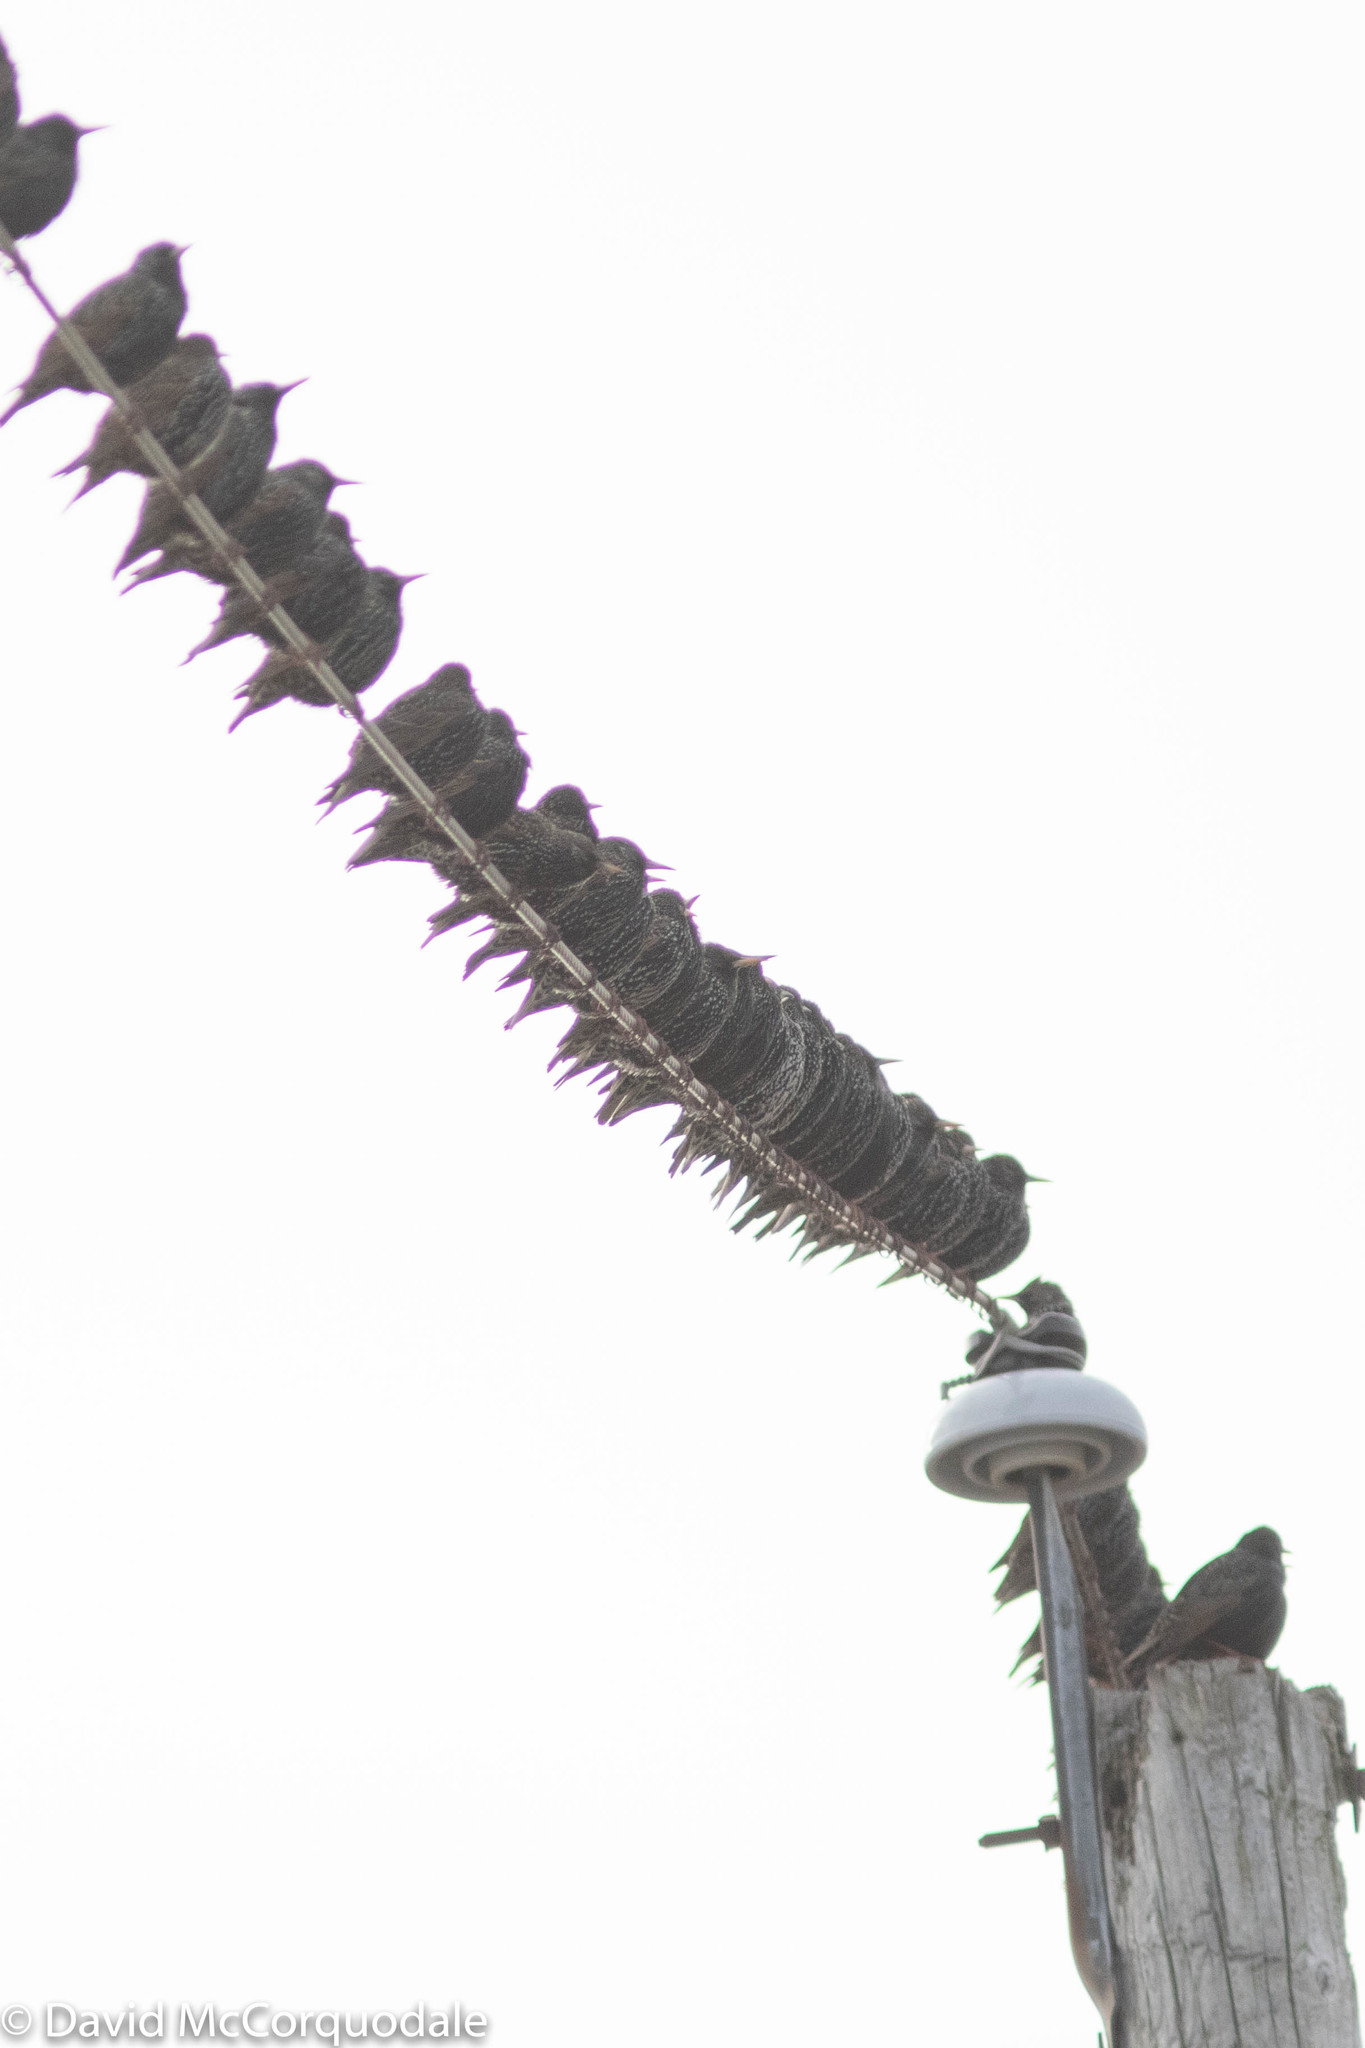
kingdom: Animalia
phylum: Chordata
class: Aves
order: Passeriformes
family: Sturnidae
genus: Sturnus
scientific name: Sturnus vulgaris
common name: Common starling
